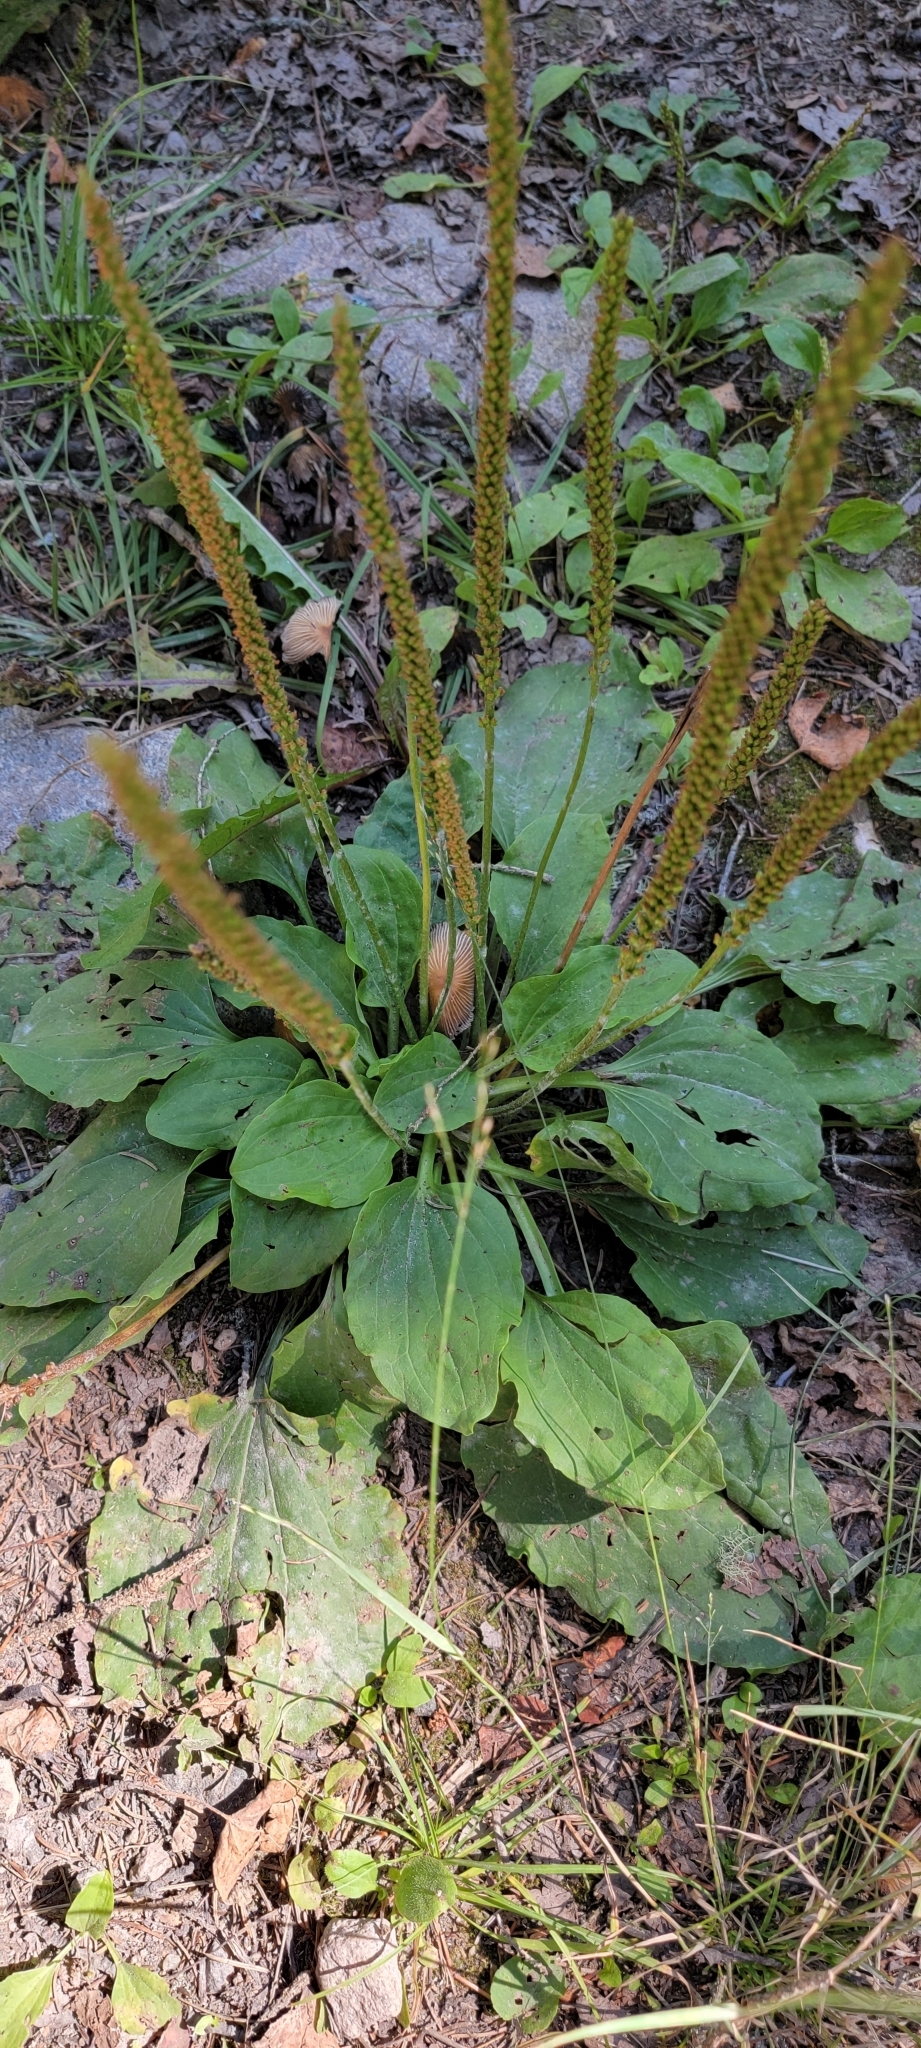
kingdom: Plantae
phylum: Tracheophyta
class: Magnoliopsida
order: Lamiales
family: Plantaginaceae
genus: Plantago
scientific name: Plantago major
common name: Common plantain
